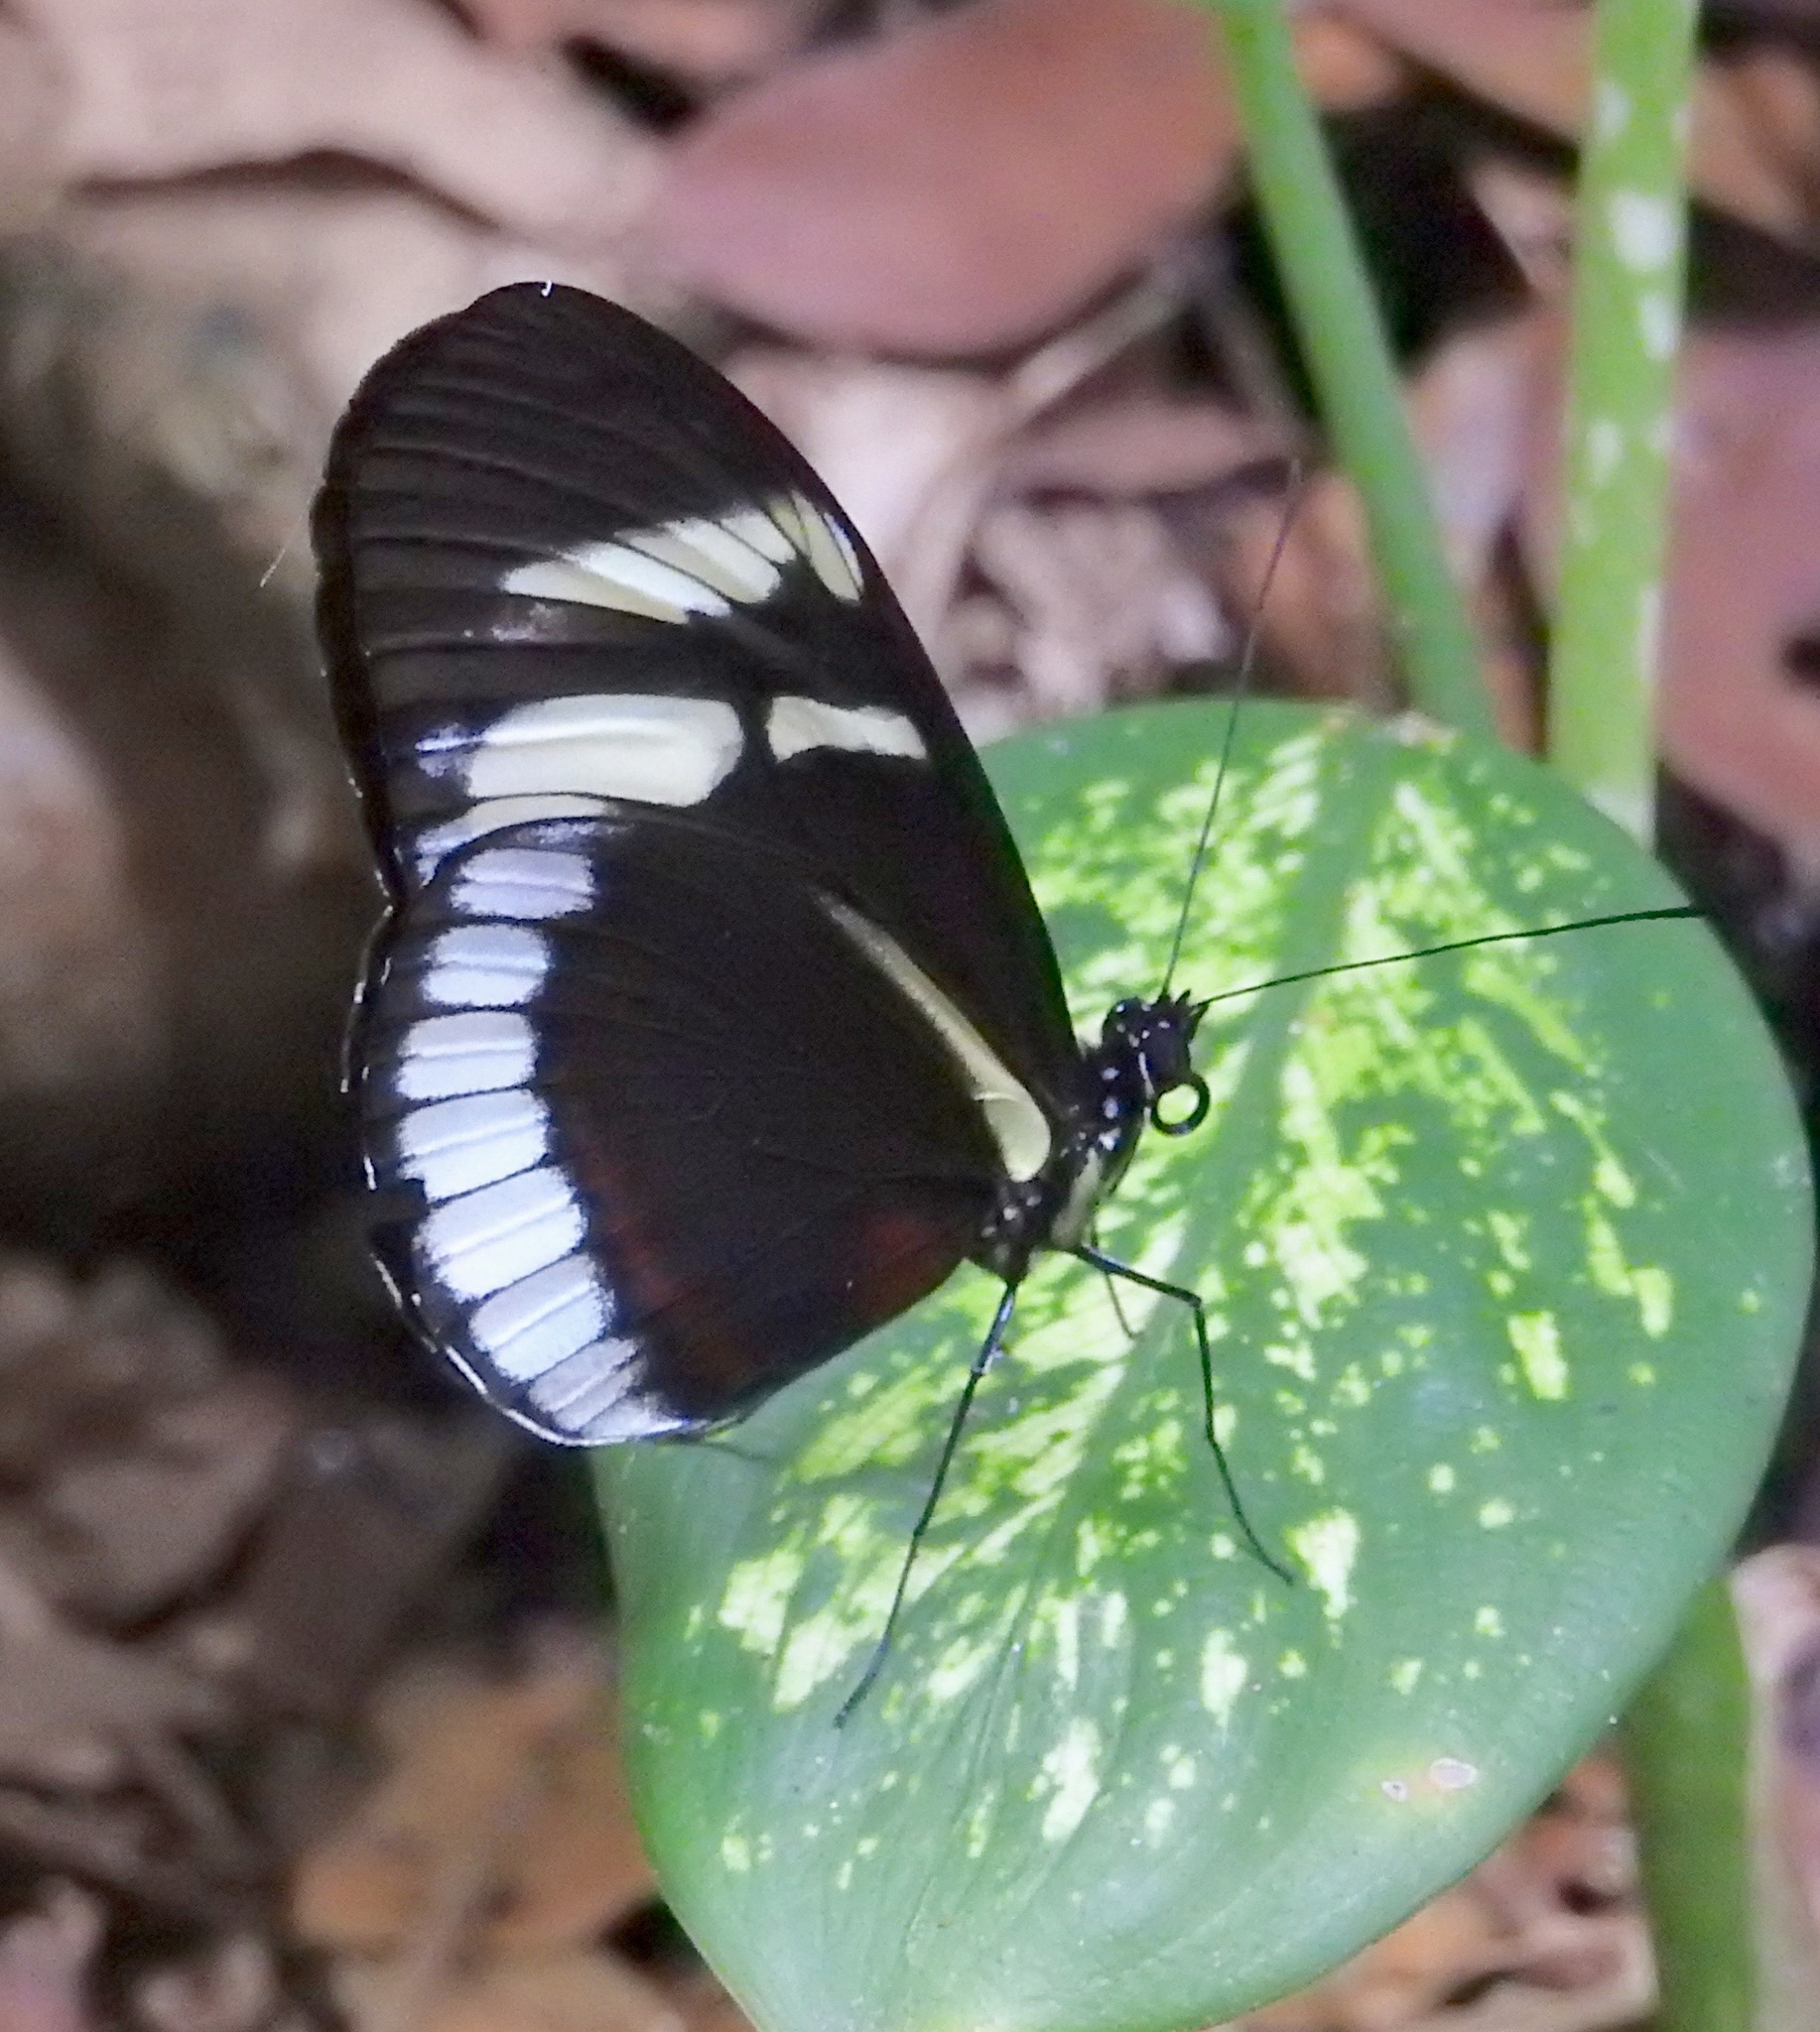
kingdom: Animalia
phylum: Arthropoda
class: Insecta
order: Lepidoptera
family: Nymphalidae
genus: Heliconius
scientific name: Heliconius cydno
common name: Cydno longwing
